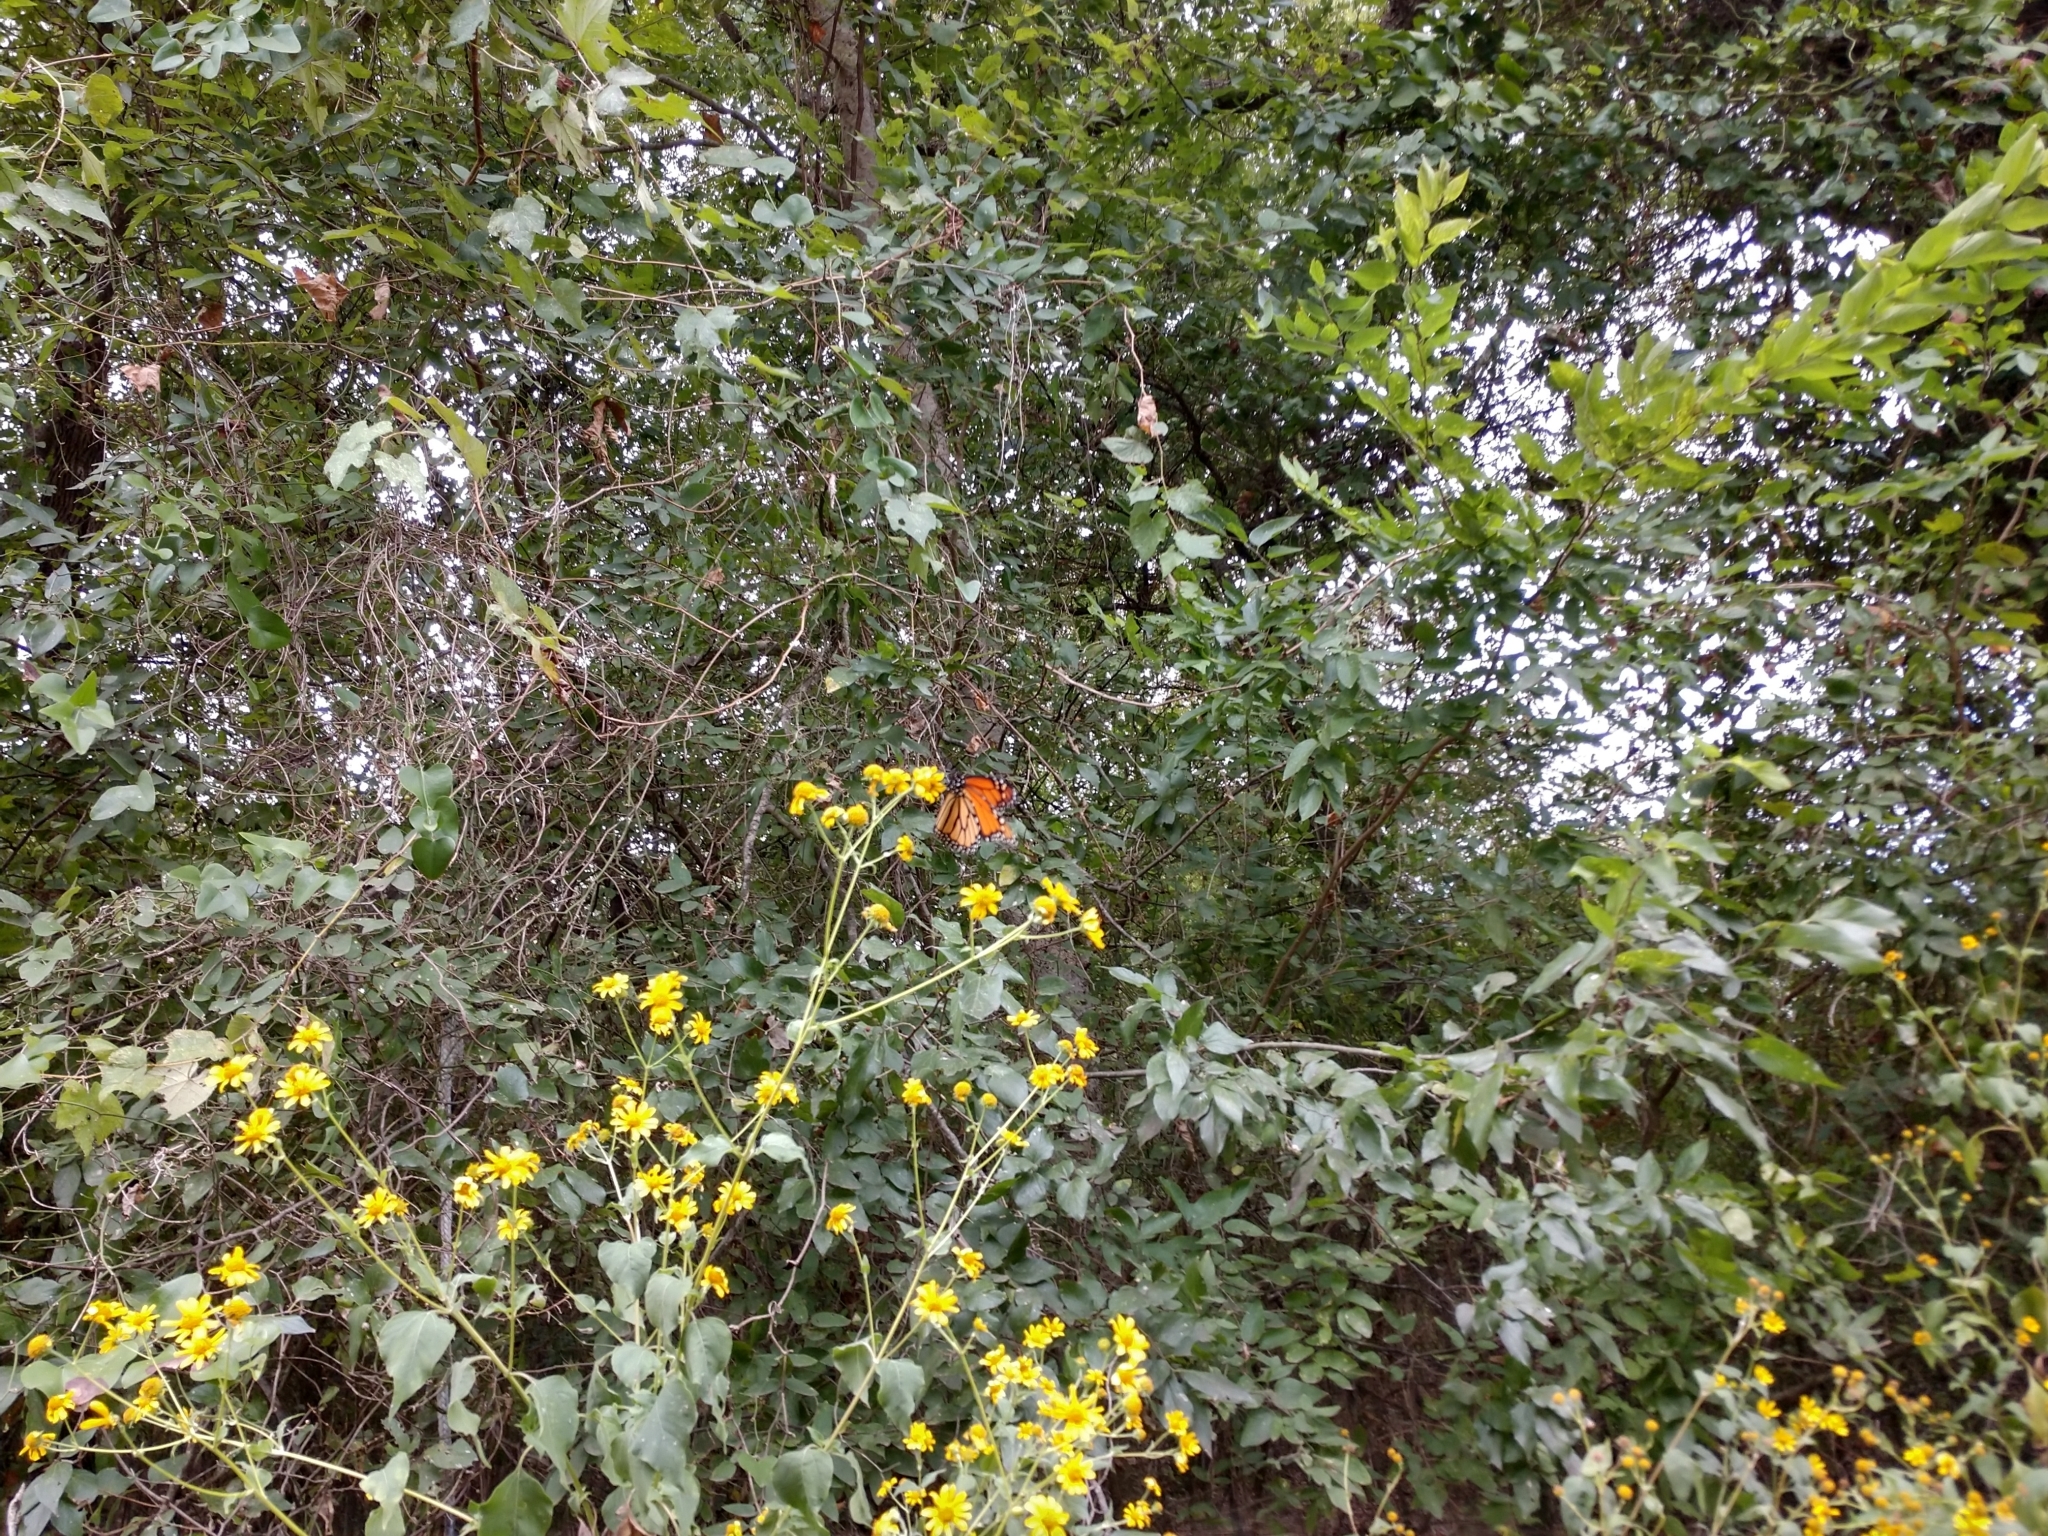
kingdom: Animalia
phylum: Arthropoda
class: Insecta
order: Lepidoptera
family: Nymphalidae
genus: Danaus
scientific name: Danaus plexippus
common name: Monarch
